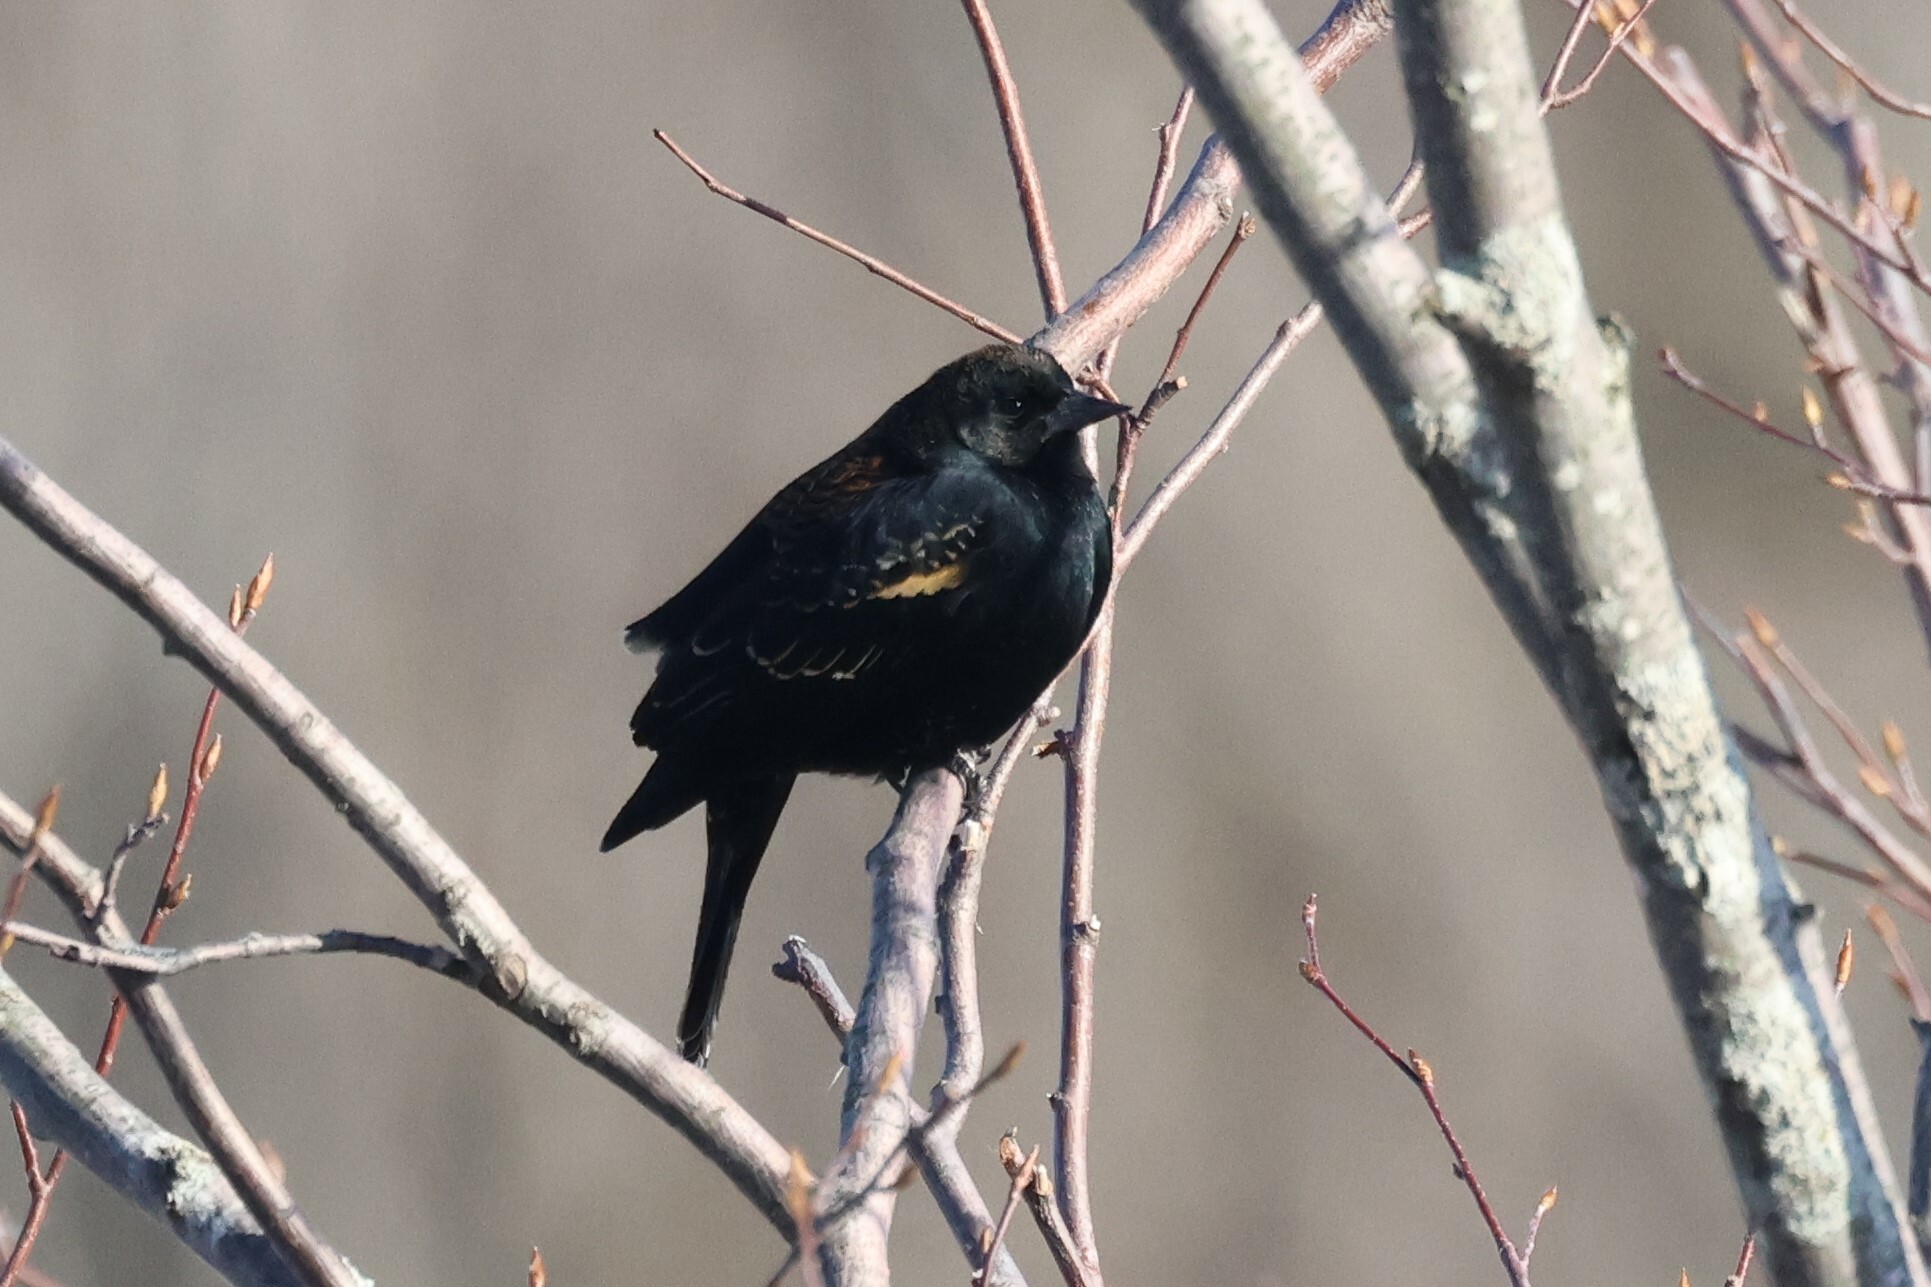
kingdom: Animalia
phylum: Chordata
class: Aves
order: Passeriformes
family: Icteridae
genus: Agelaius
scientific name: Agelaius phoeniceus
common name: Red-winged blackbird
